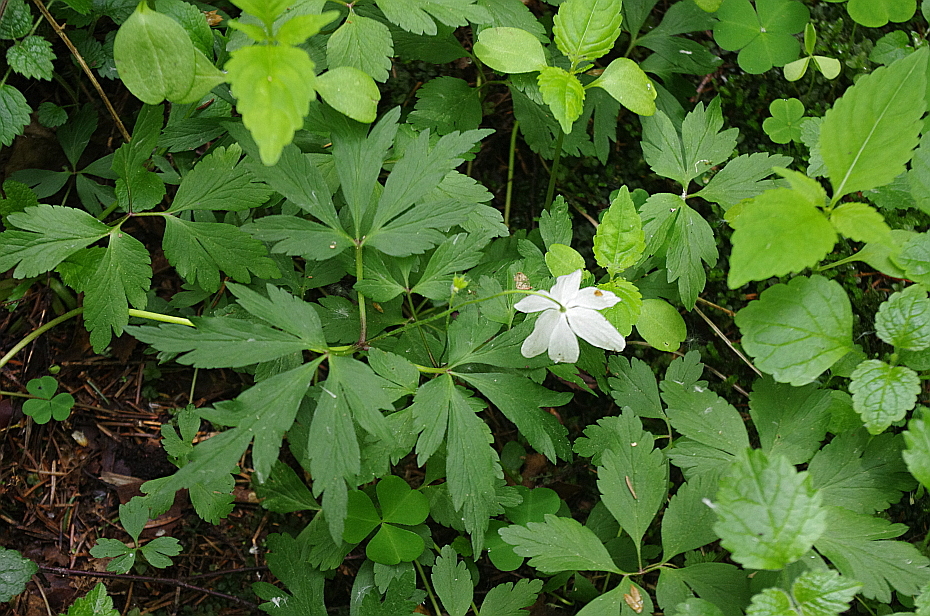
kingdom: Plantae
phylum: Tracheophyta
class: Magnoliopsida
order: Ranunculales
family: Ranunculaceae
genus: Anemone
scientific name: Anemone nemorosa
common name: Wood anemone
